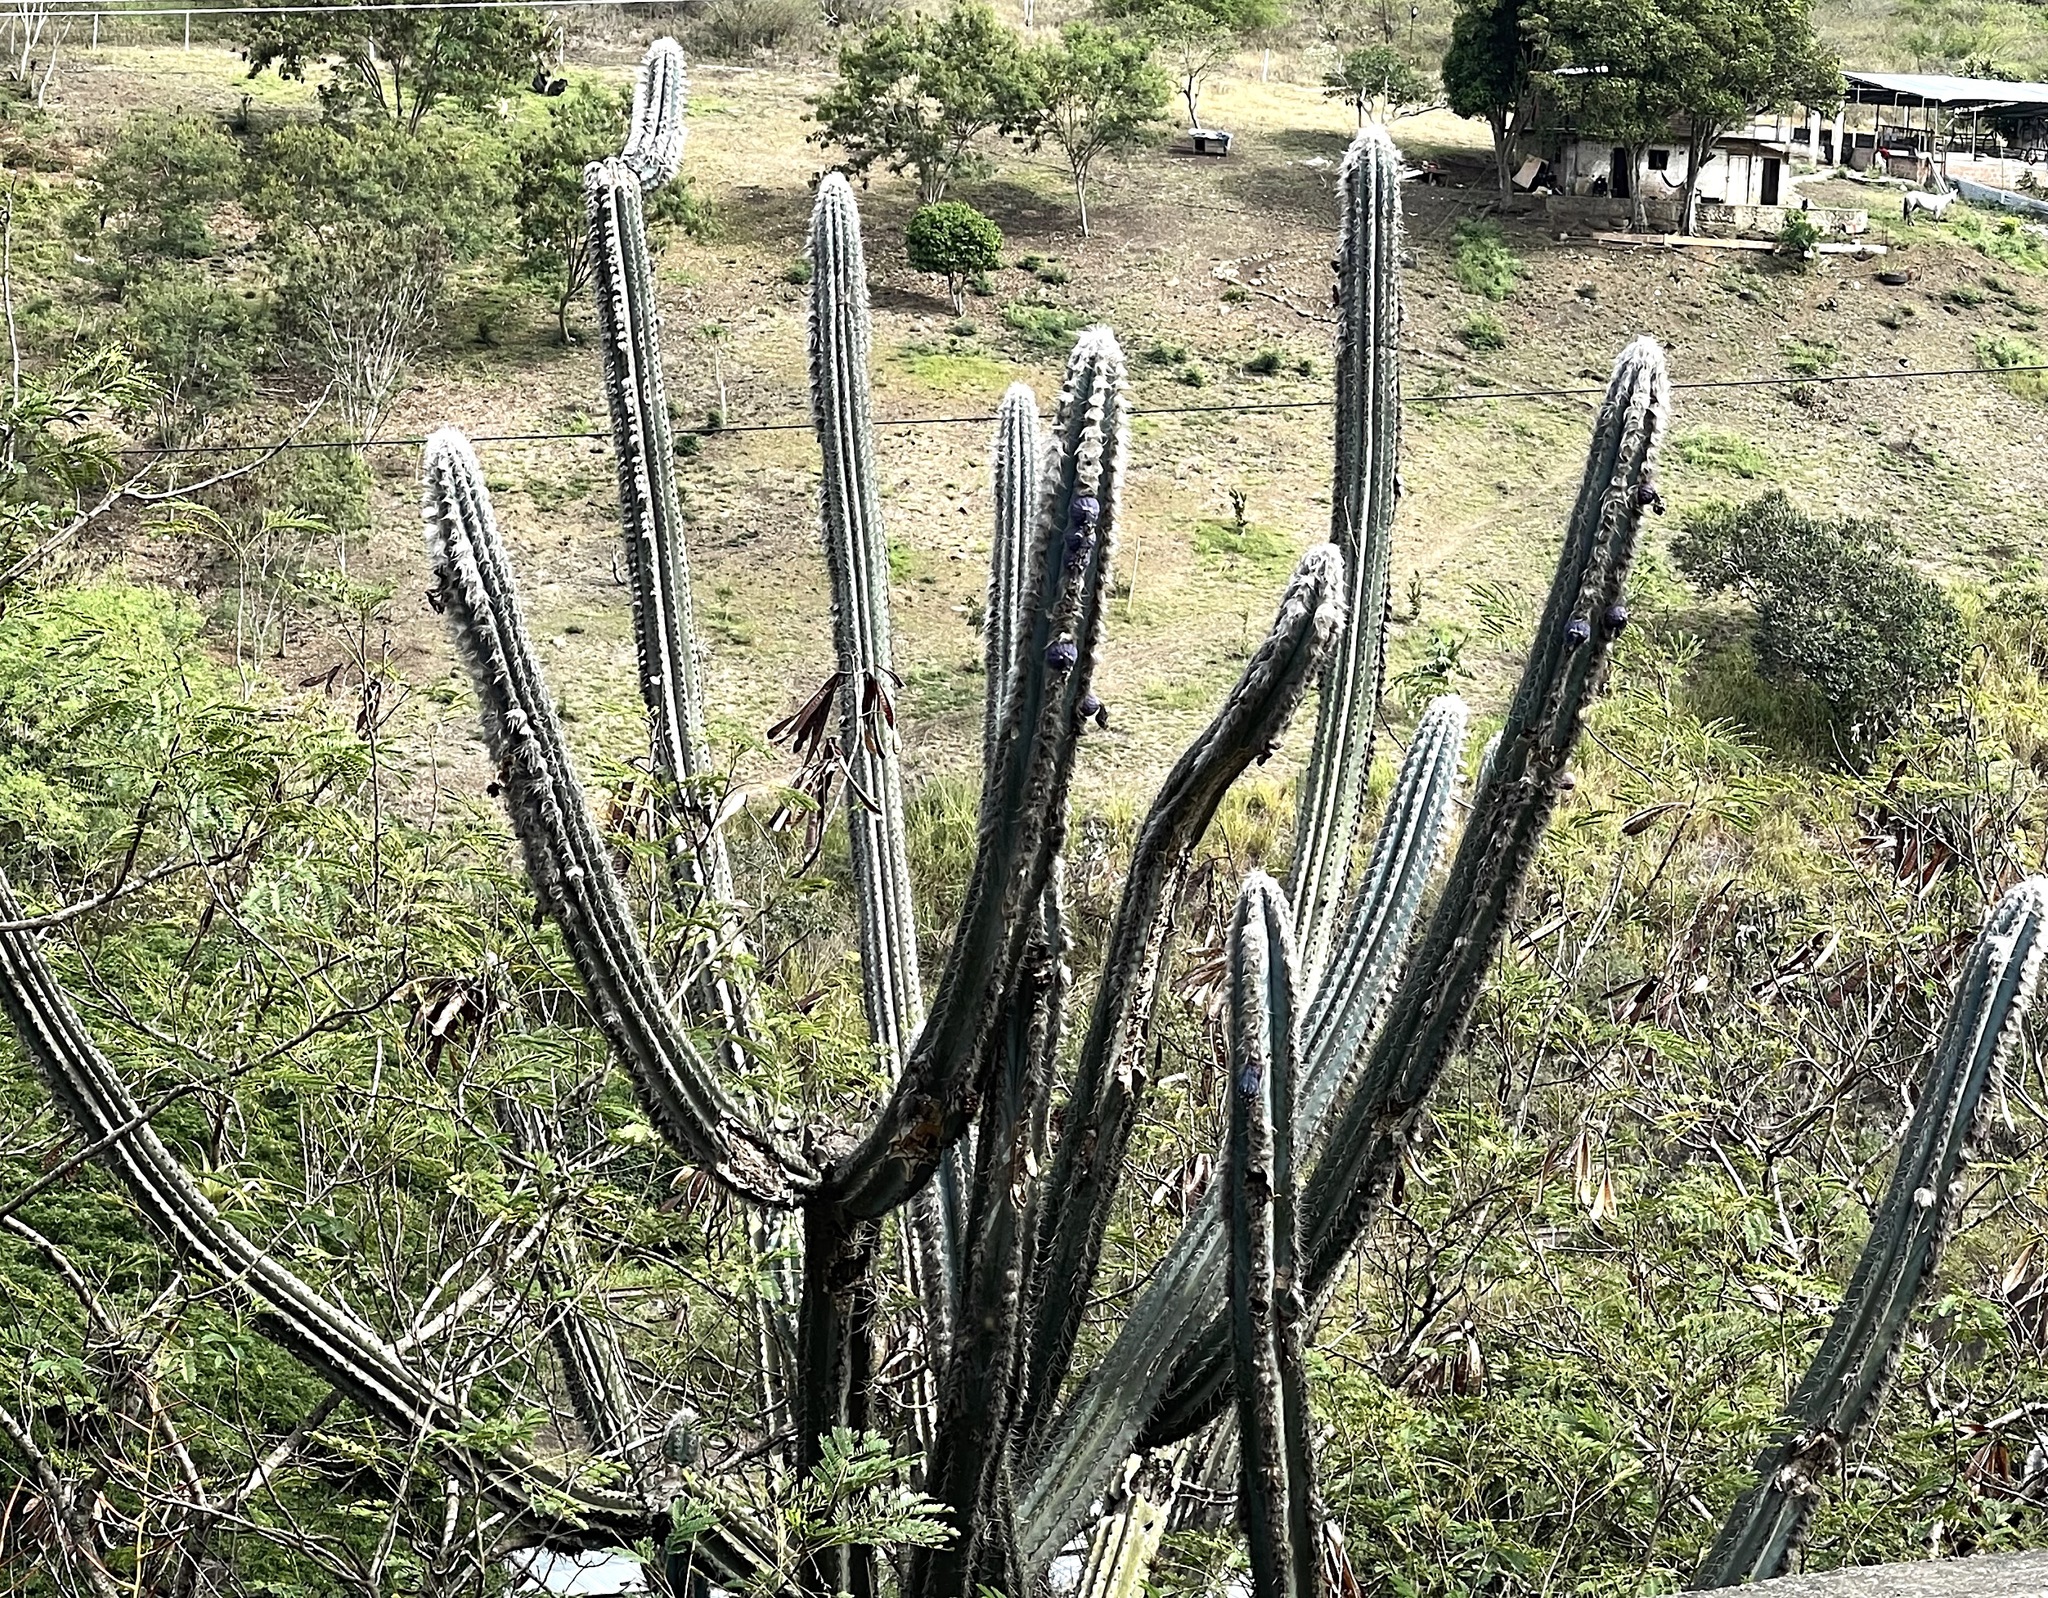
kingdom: Plantae
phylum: Tracheophyta
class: Magnoliopsida
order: Caryophyllales
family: Cactaceae
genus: Pilosocereus
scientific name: Pilosocereus lanuginosus
